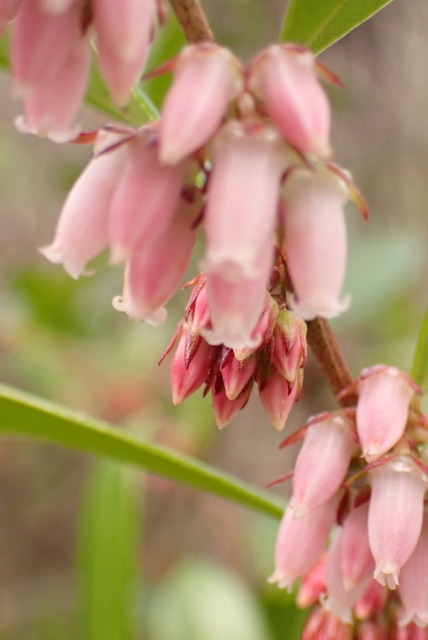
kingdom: Plantae
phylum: Tracheophyta
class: Magnoliopsida
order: Ericales
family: Ericaceae
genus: Lyonia
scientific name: Lyonia lucida
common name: Fetterbush
